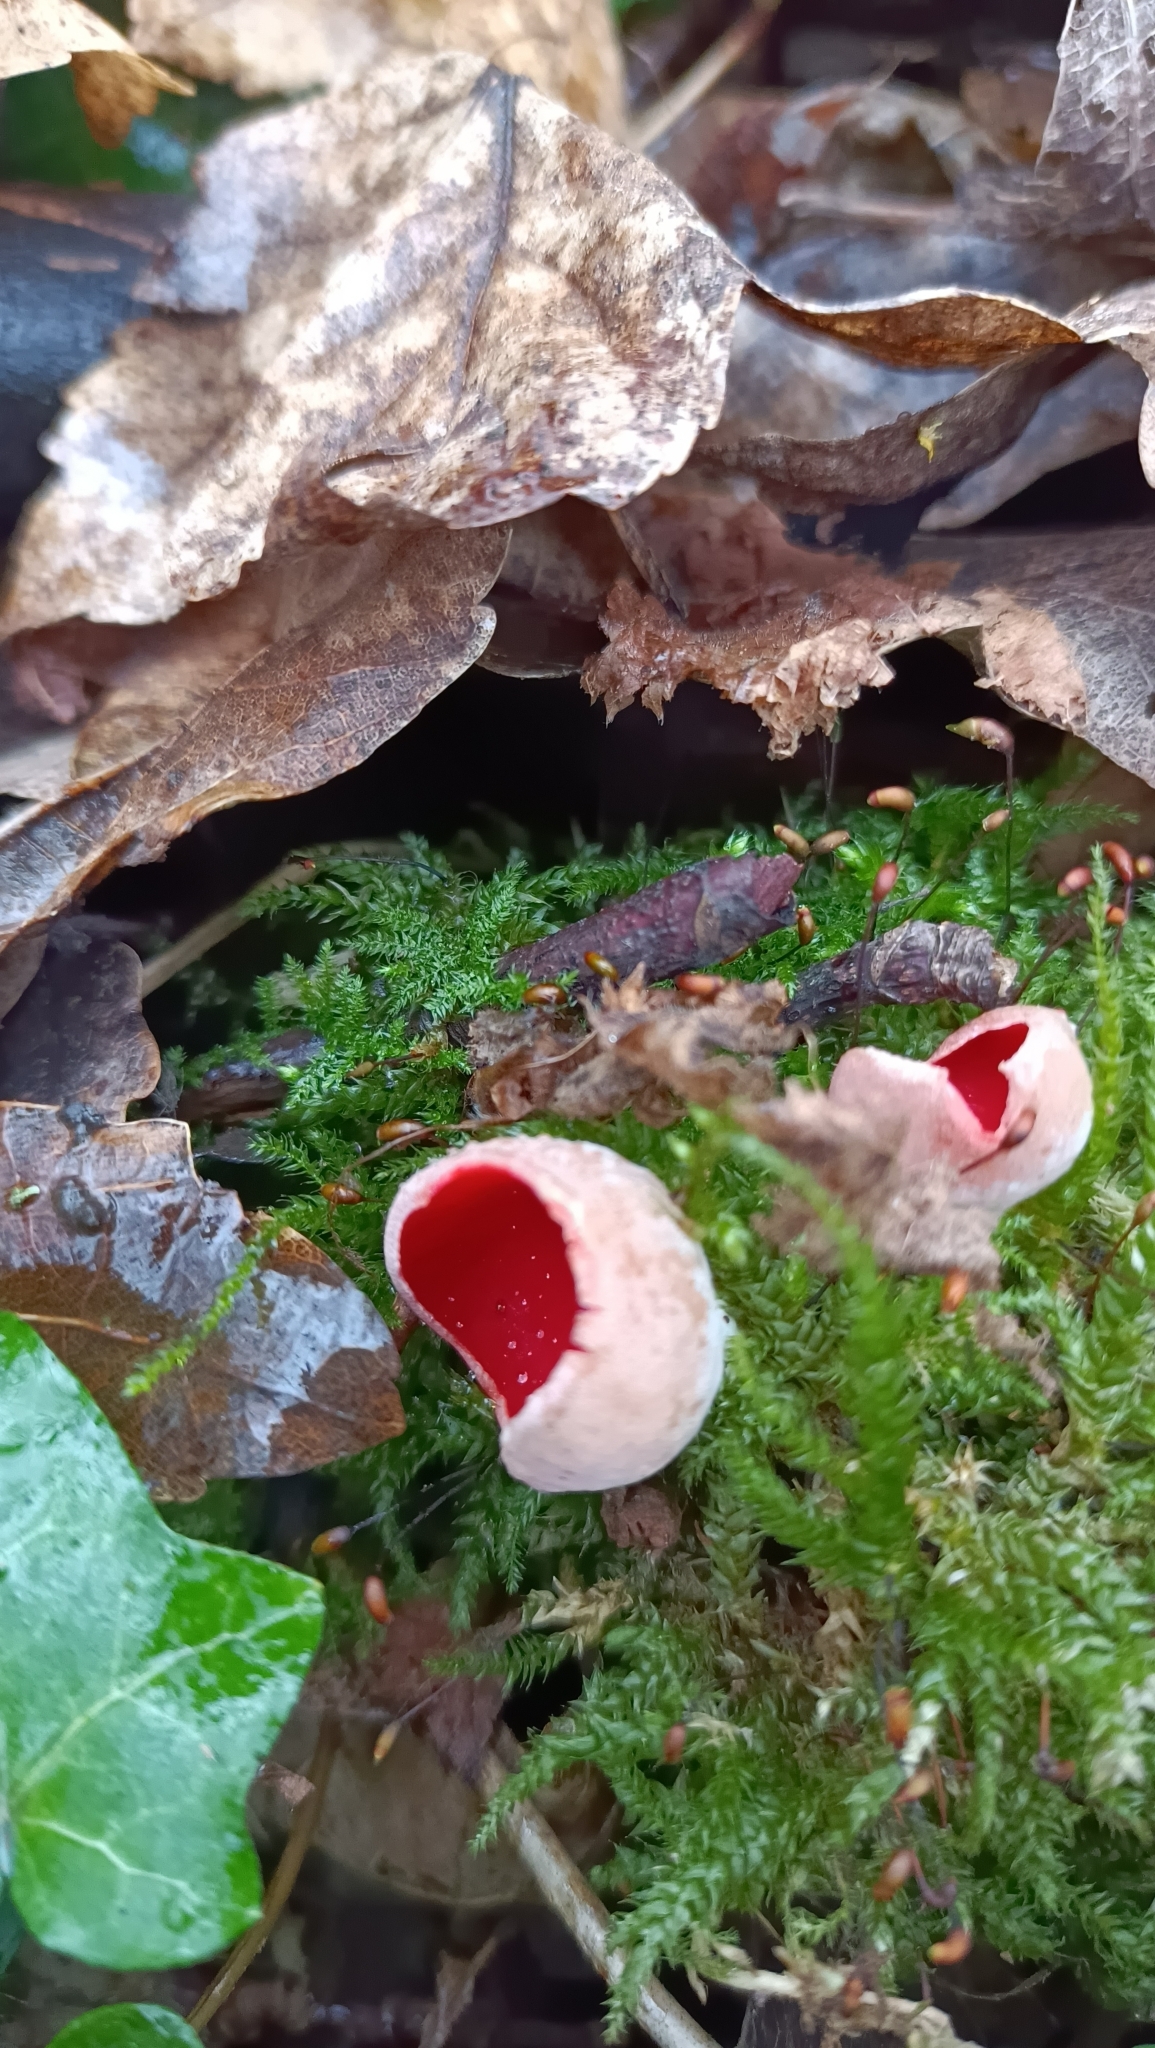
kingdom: Fungi
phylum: Ascomycota
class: Pezizomycetes
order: Pezizales
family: Sarcoscyphaceae
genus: Sarcoscypha
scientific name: Sarcoscypha
